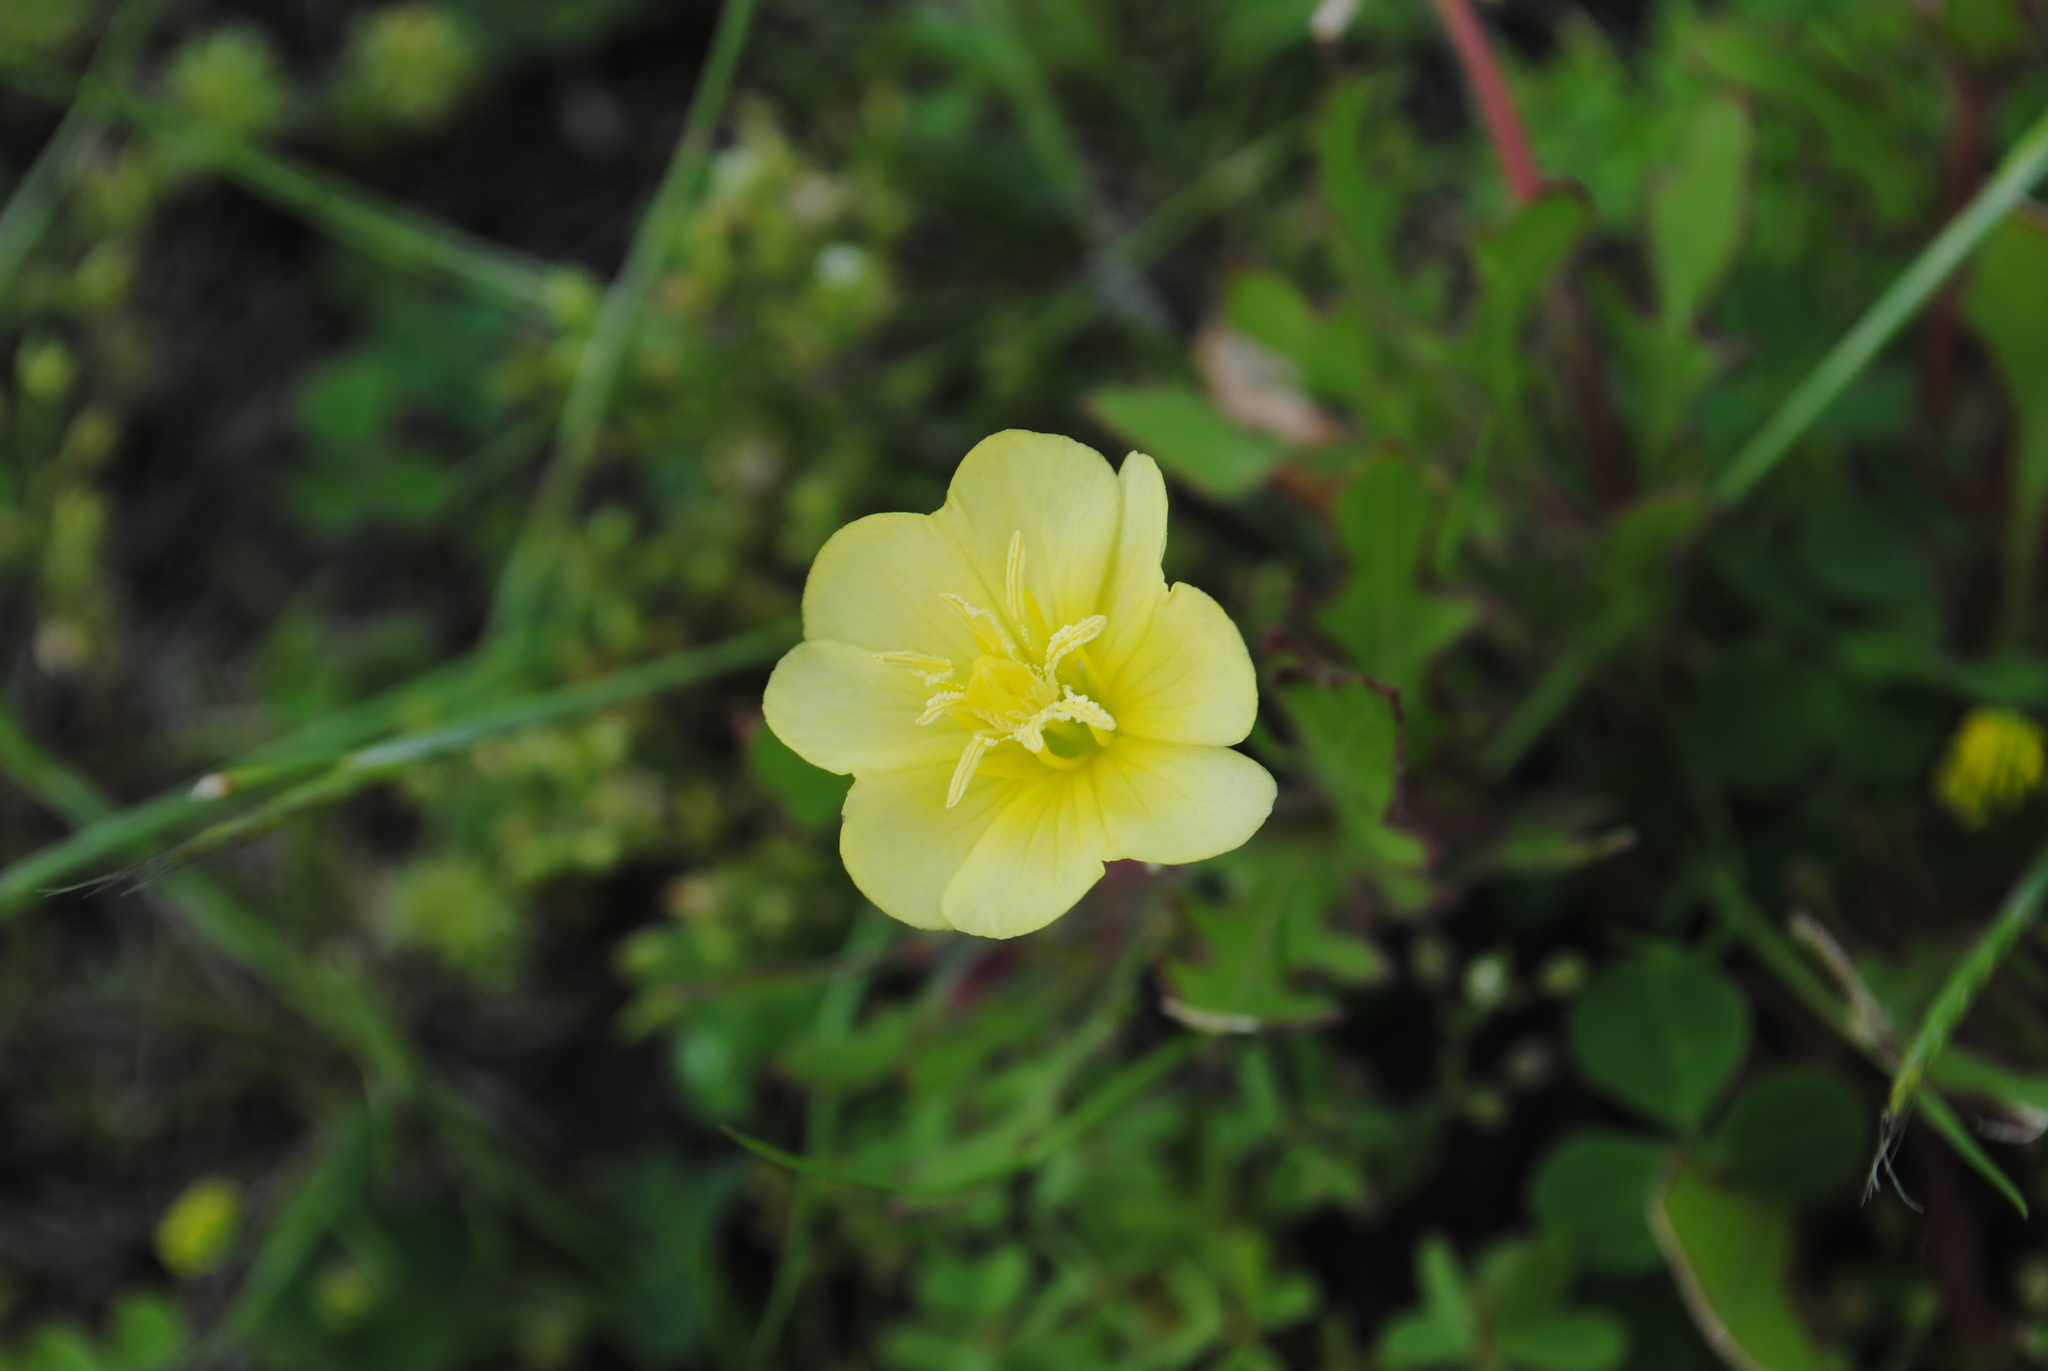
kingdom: Plantae
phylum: Tracheophyta
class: Magnoliopsida
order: Myrtales
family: Onagraceae
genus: Oenothera
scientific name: Oenothera laciniata
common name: Cut-leaved evening-primrose
